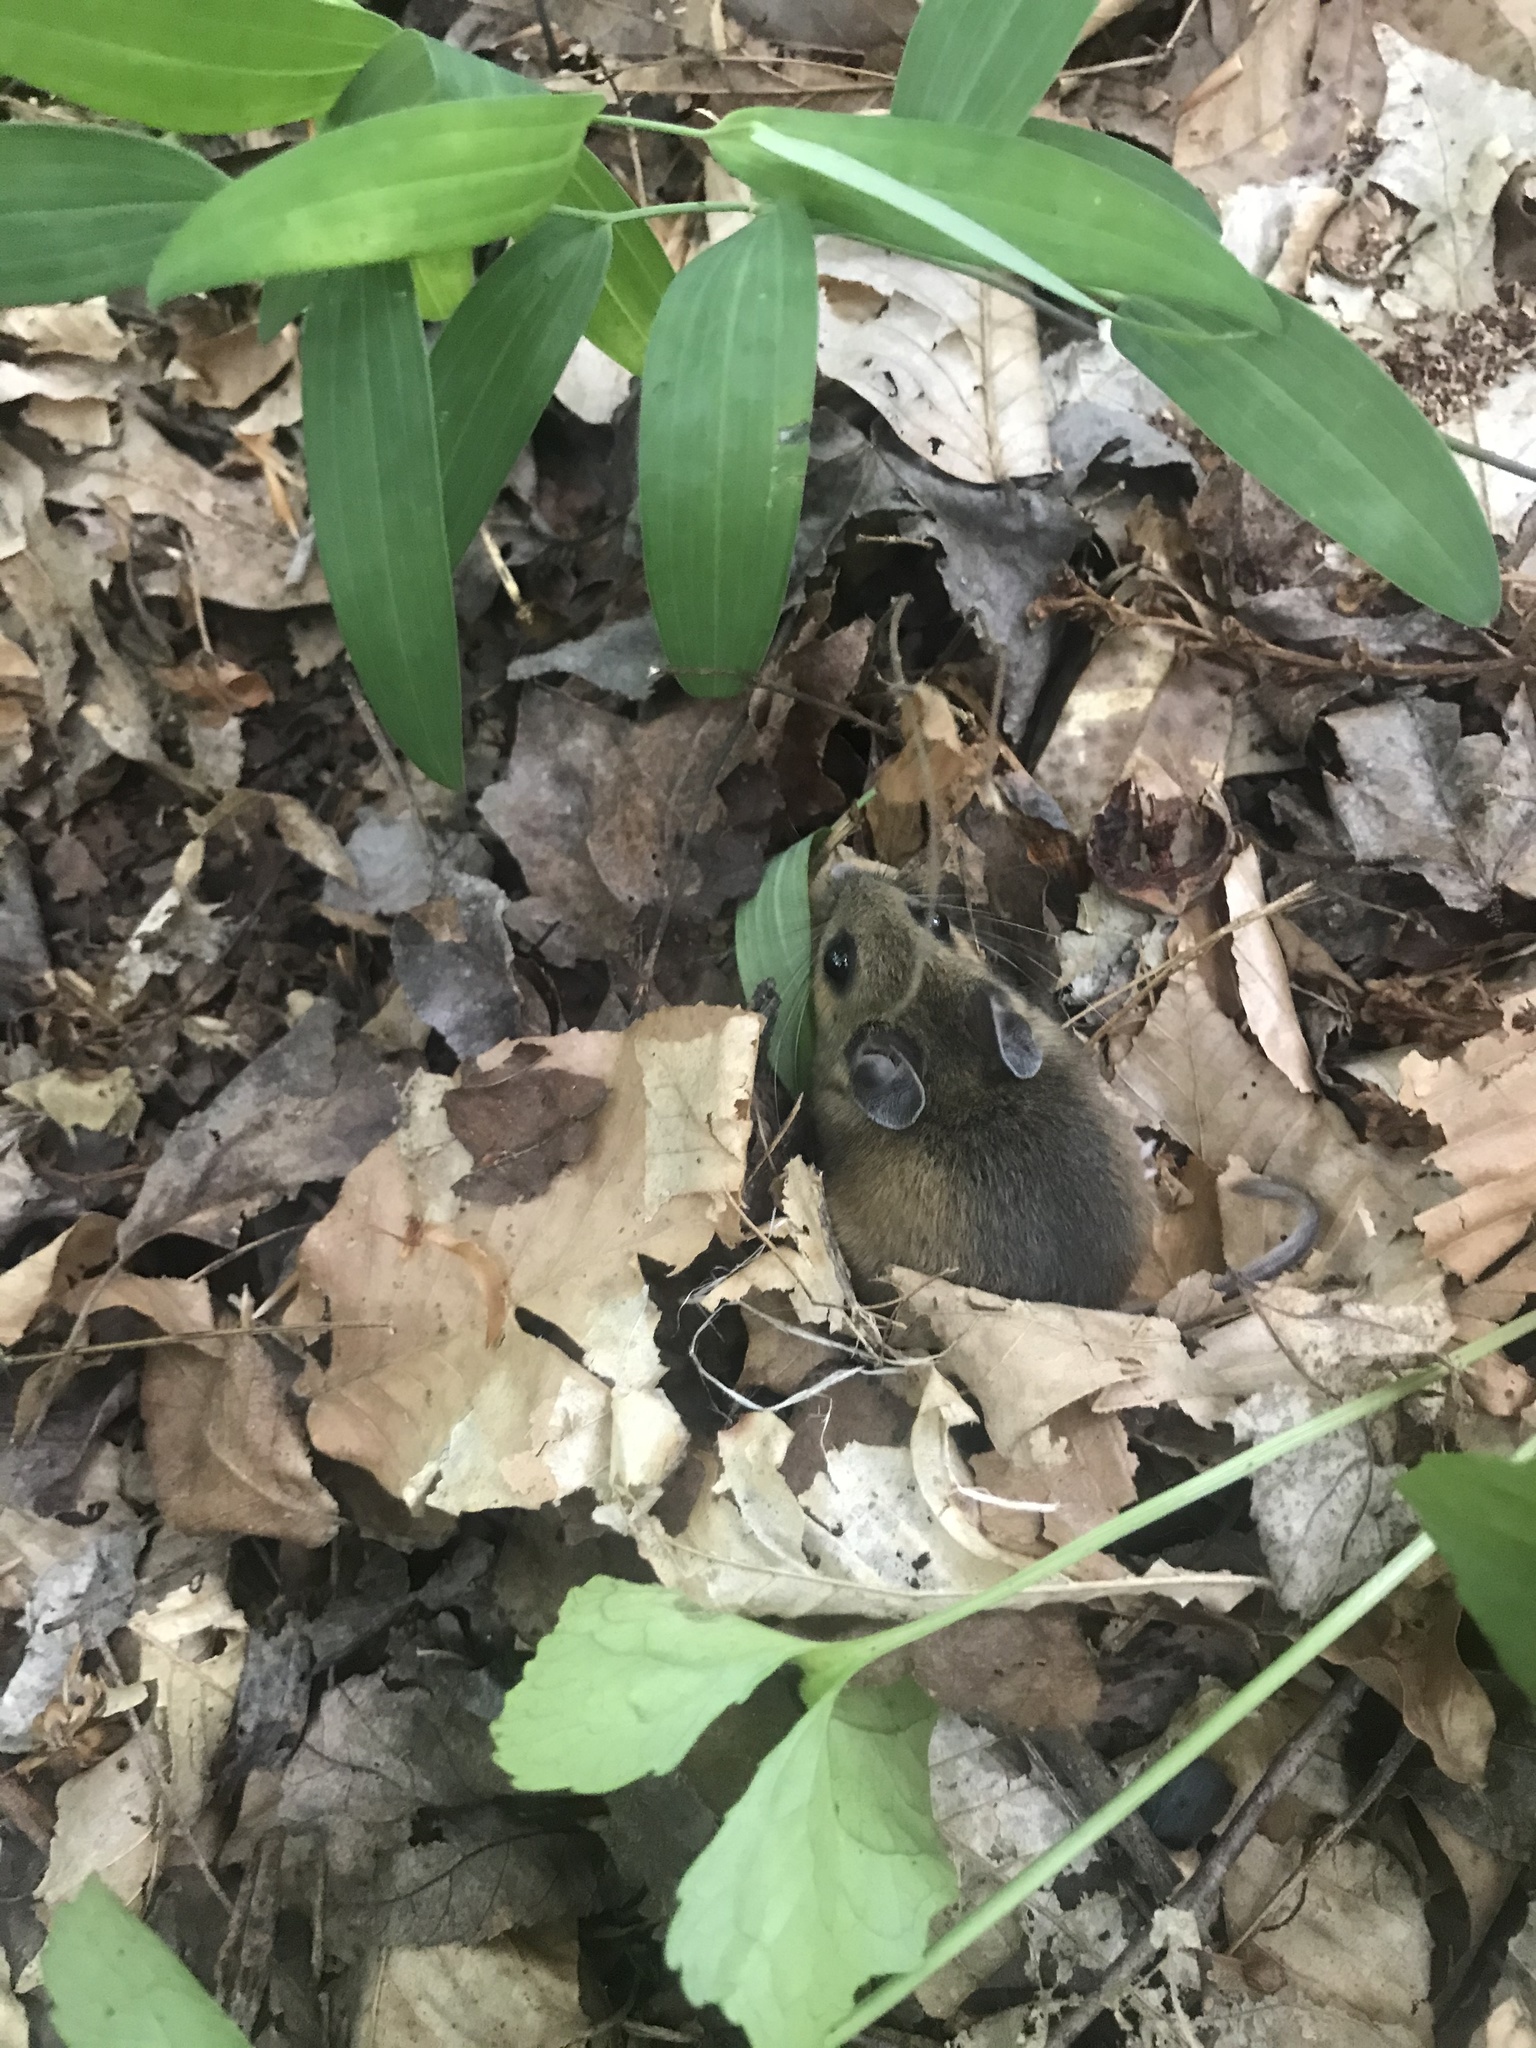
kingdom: Animalia
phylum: Chordata
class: Mammalia
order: Rodentia
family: Cricetidae
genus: Peromyscus
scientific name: Peromyscus leucopus
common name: White-footed deermouse
